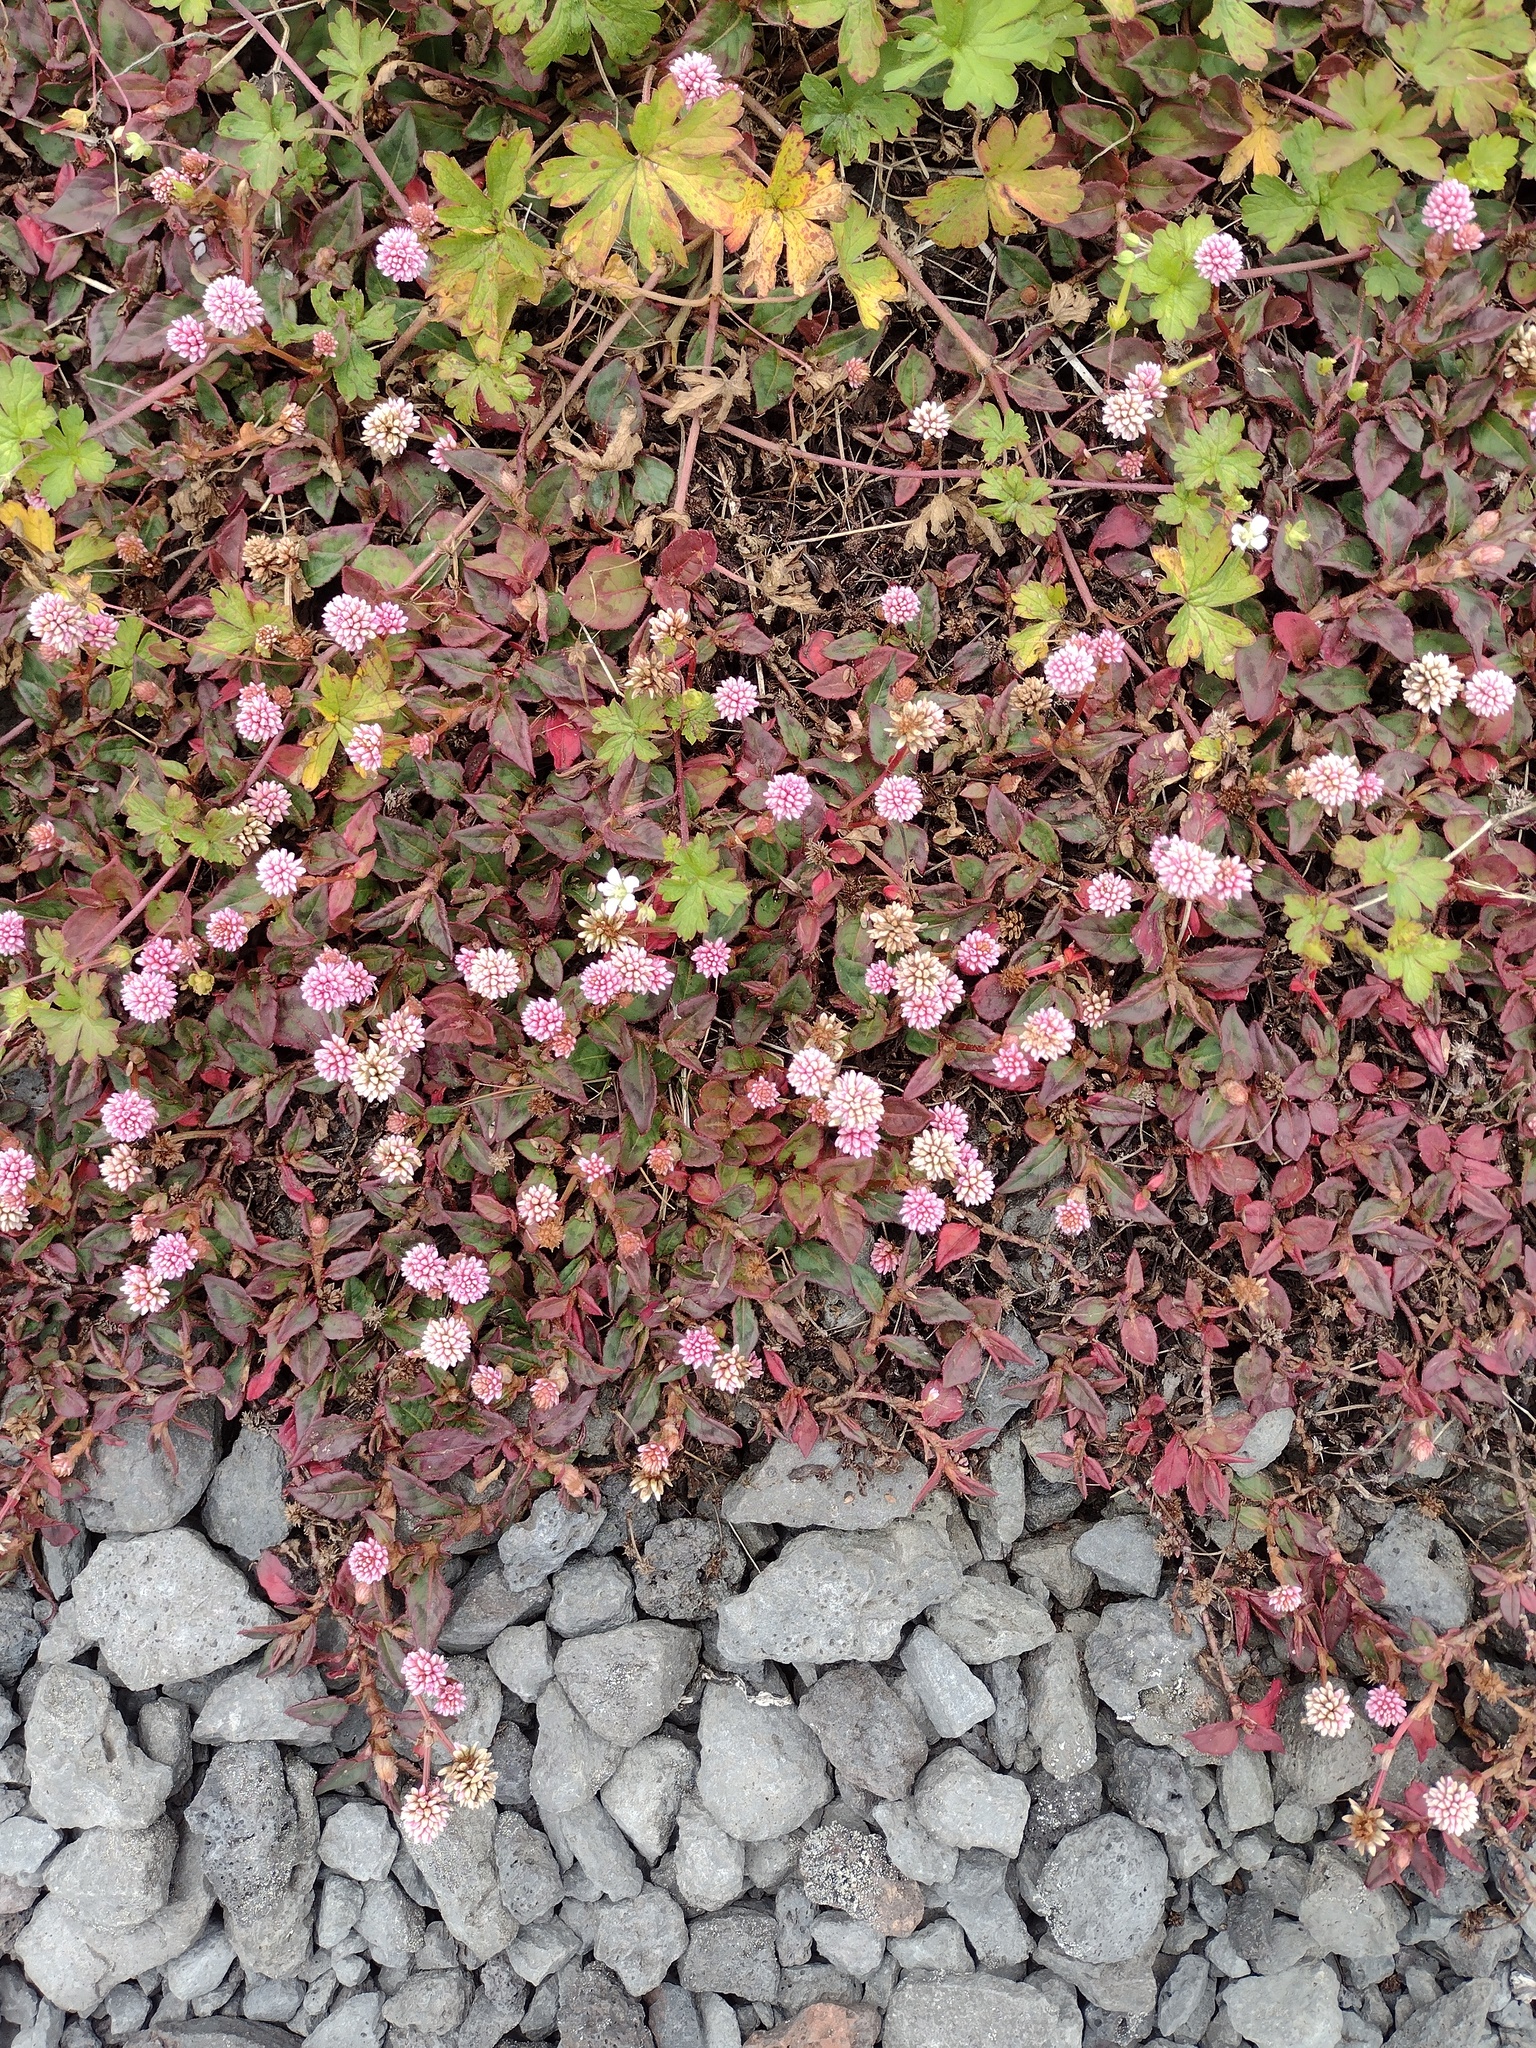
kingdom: Plantae
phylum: Tracheophyta
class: Magnoliopsida
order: Caryophyllales
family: Polygonaceae
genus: Persicaria
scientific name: Persicaria capitata
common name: Pinkhead smartweed
